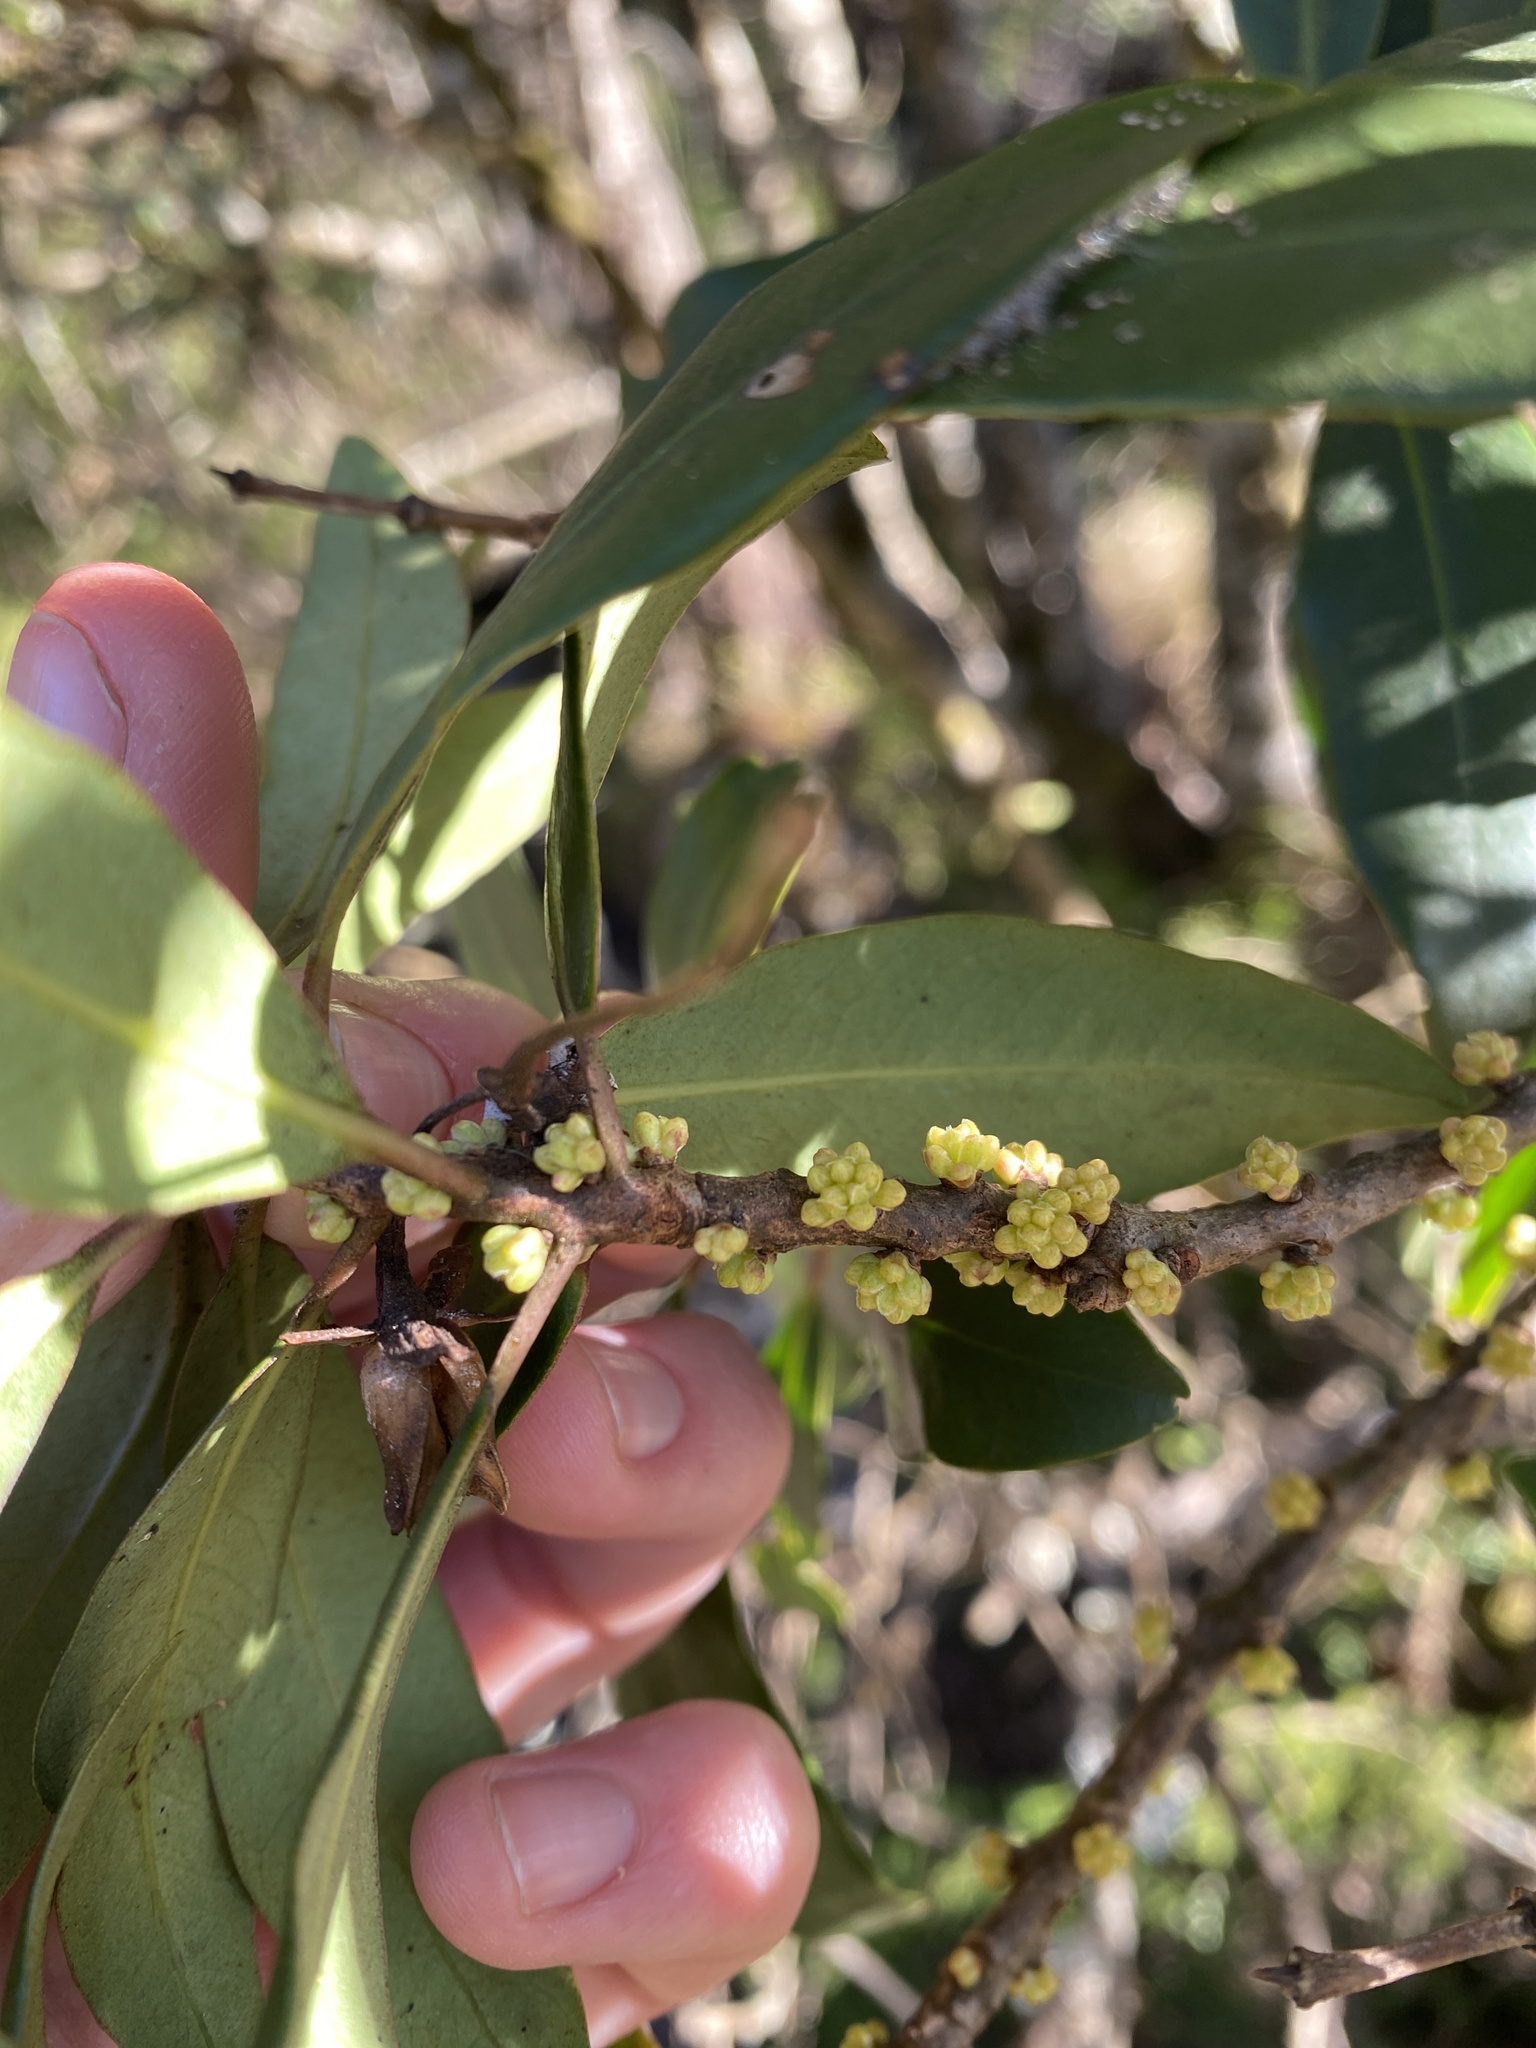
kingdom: Plantae
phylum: Tracheophyta
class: Magnoliopsida
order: Ericales
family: Primulaceae
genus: Myrsine
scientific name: Myrsine melanophloeos
